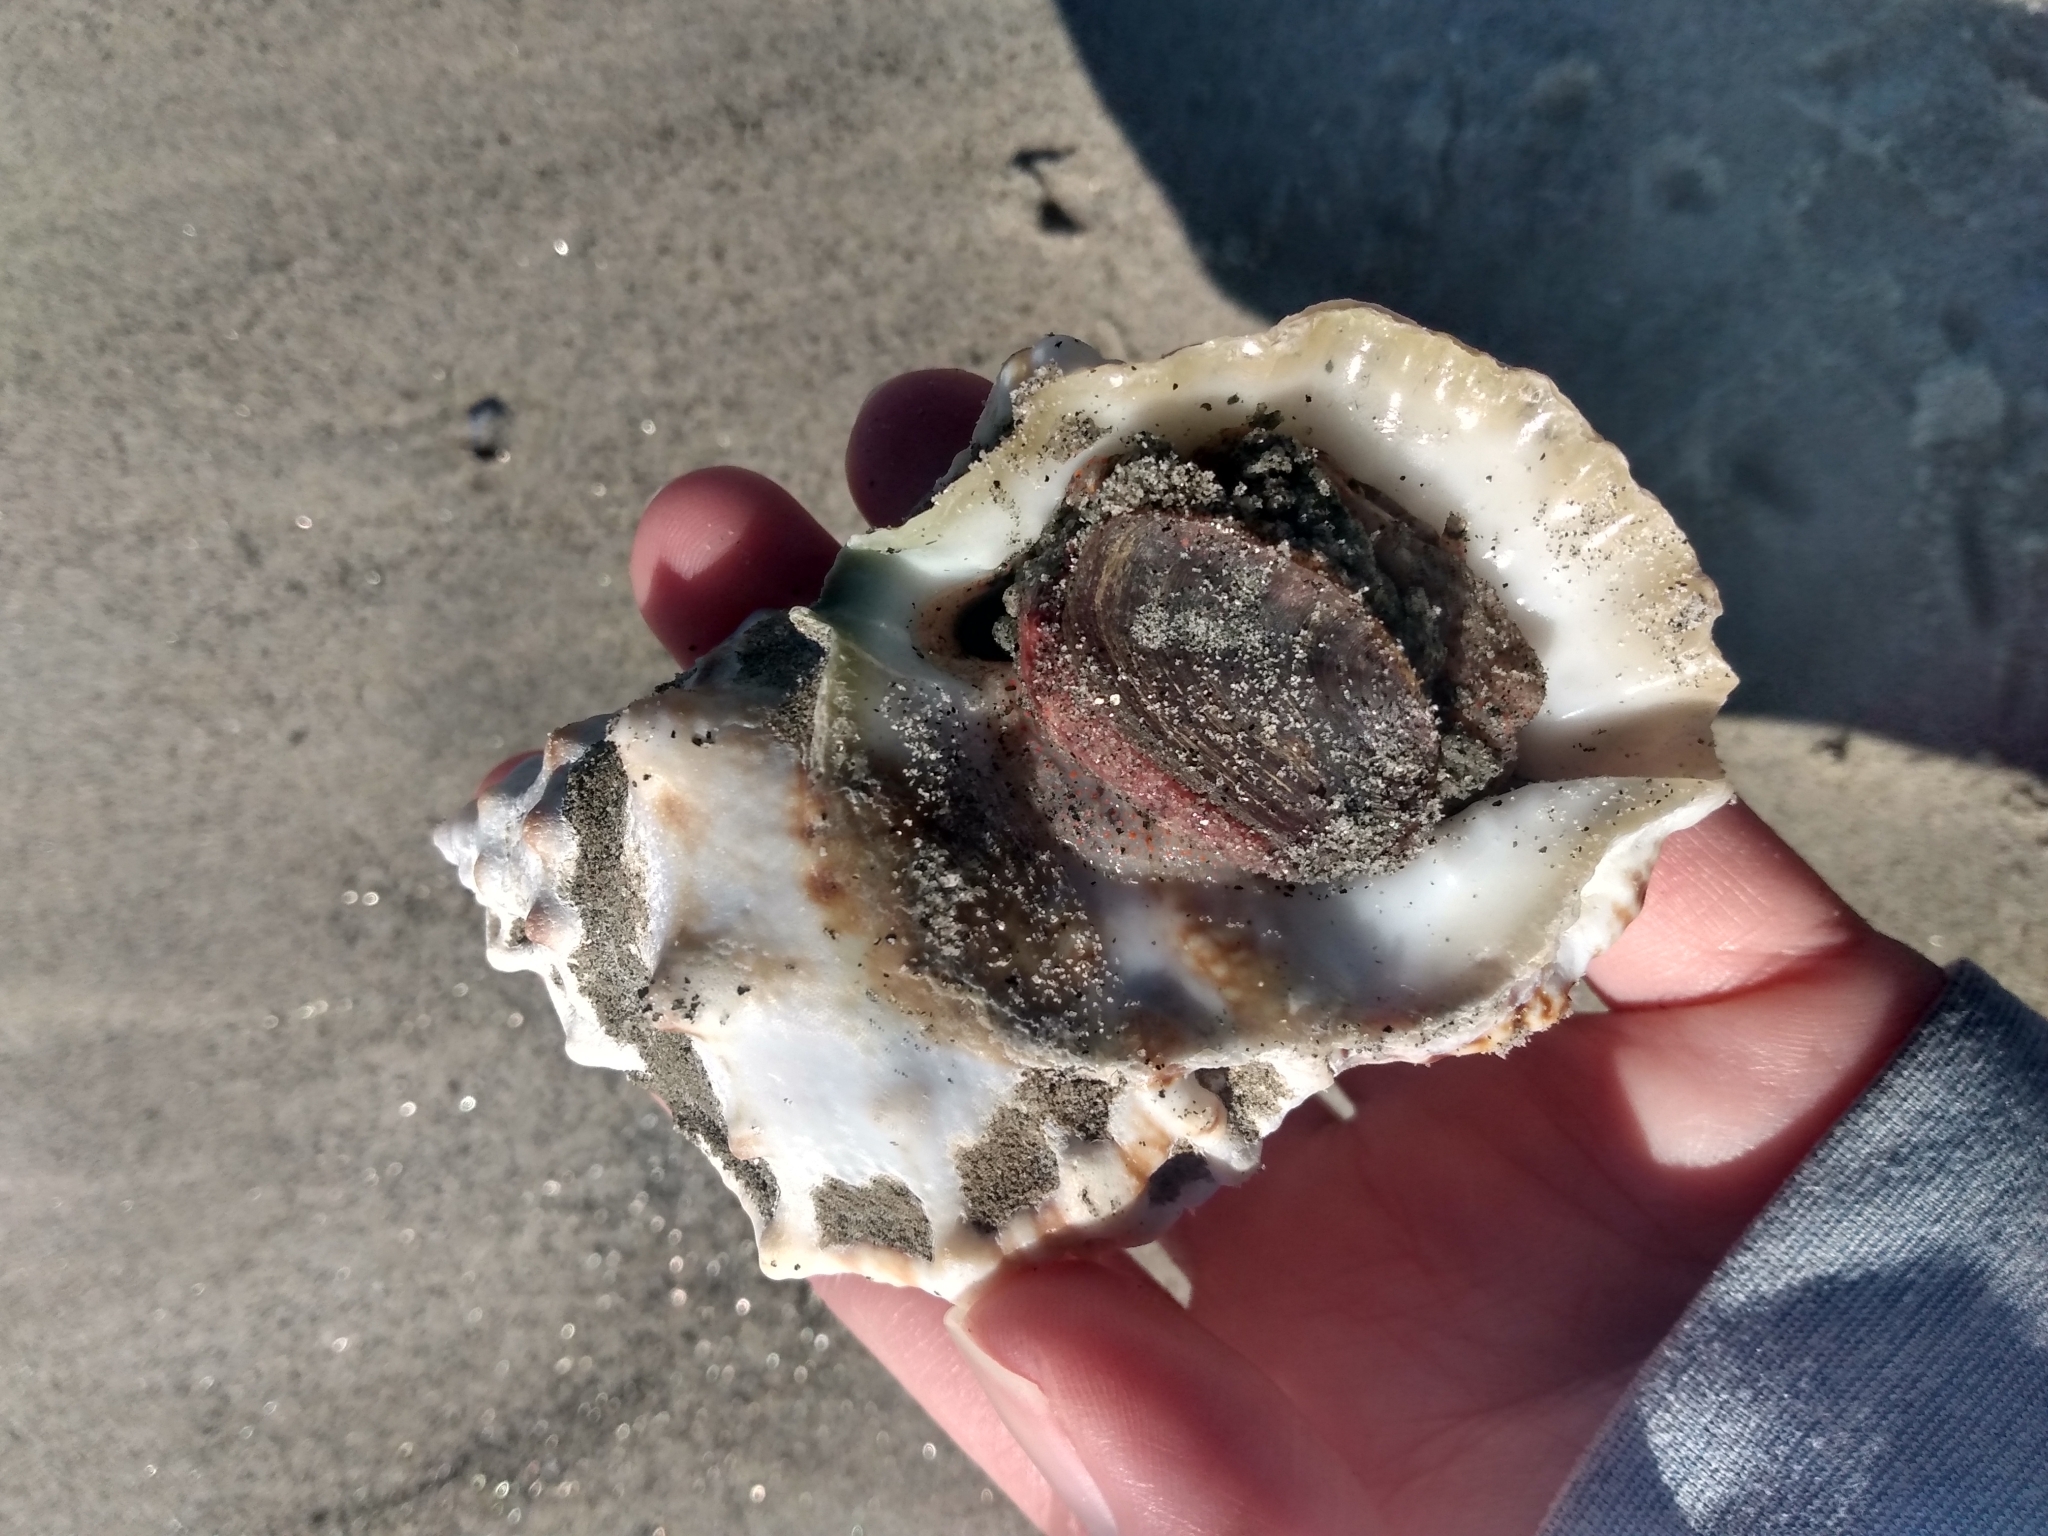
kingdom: Animalia
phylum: Mollusca
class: Gastropoda
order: Littorinimorpha
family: Bursidae
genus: Crossata
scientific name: Crossata californica
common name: California frogsnail
